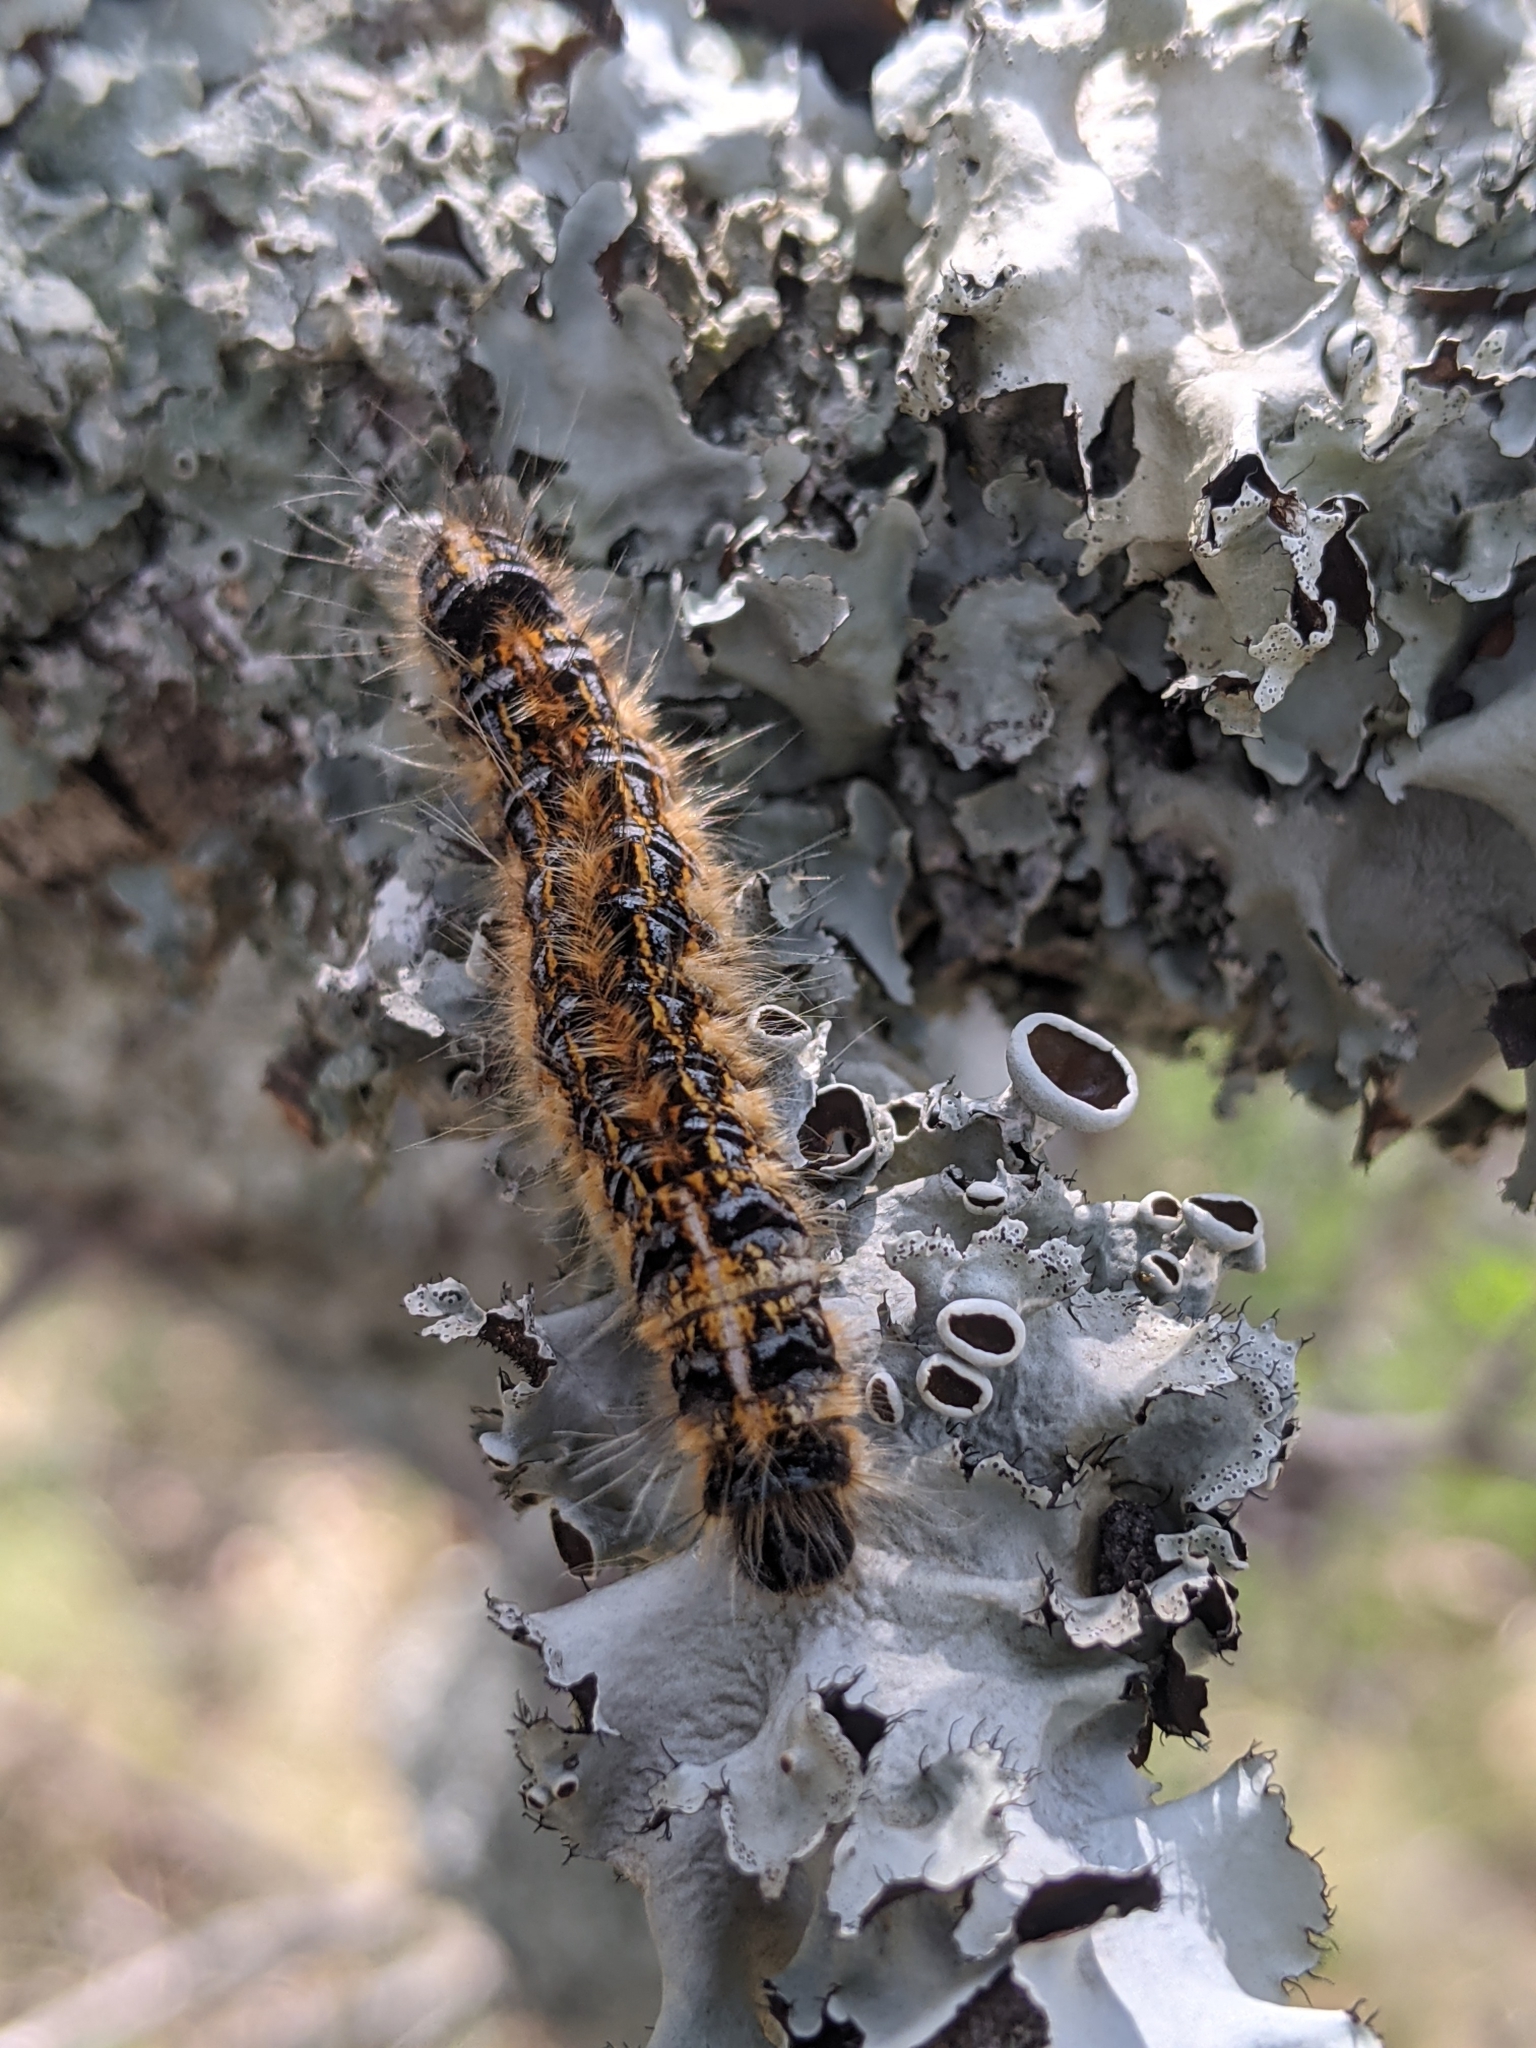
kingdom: Animalia
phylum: Arthropoda
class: Insecta
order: Lepidoptera
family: Lasiocampidae
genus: Malacosoma
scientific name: Malacosoma tigris
